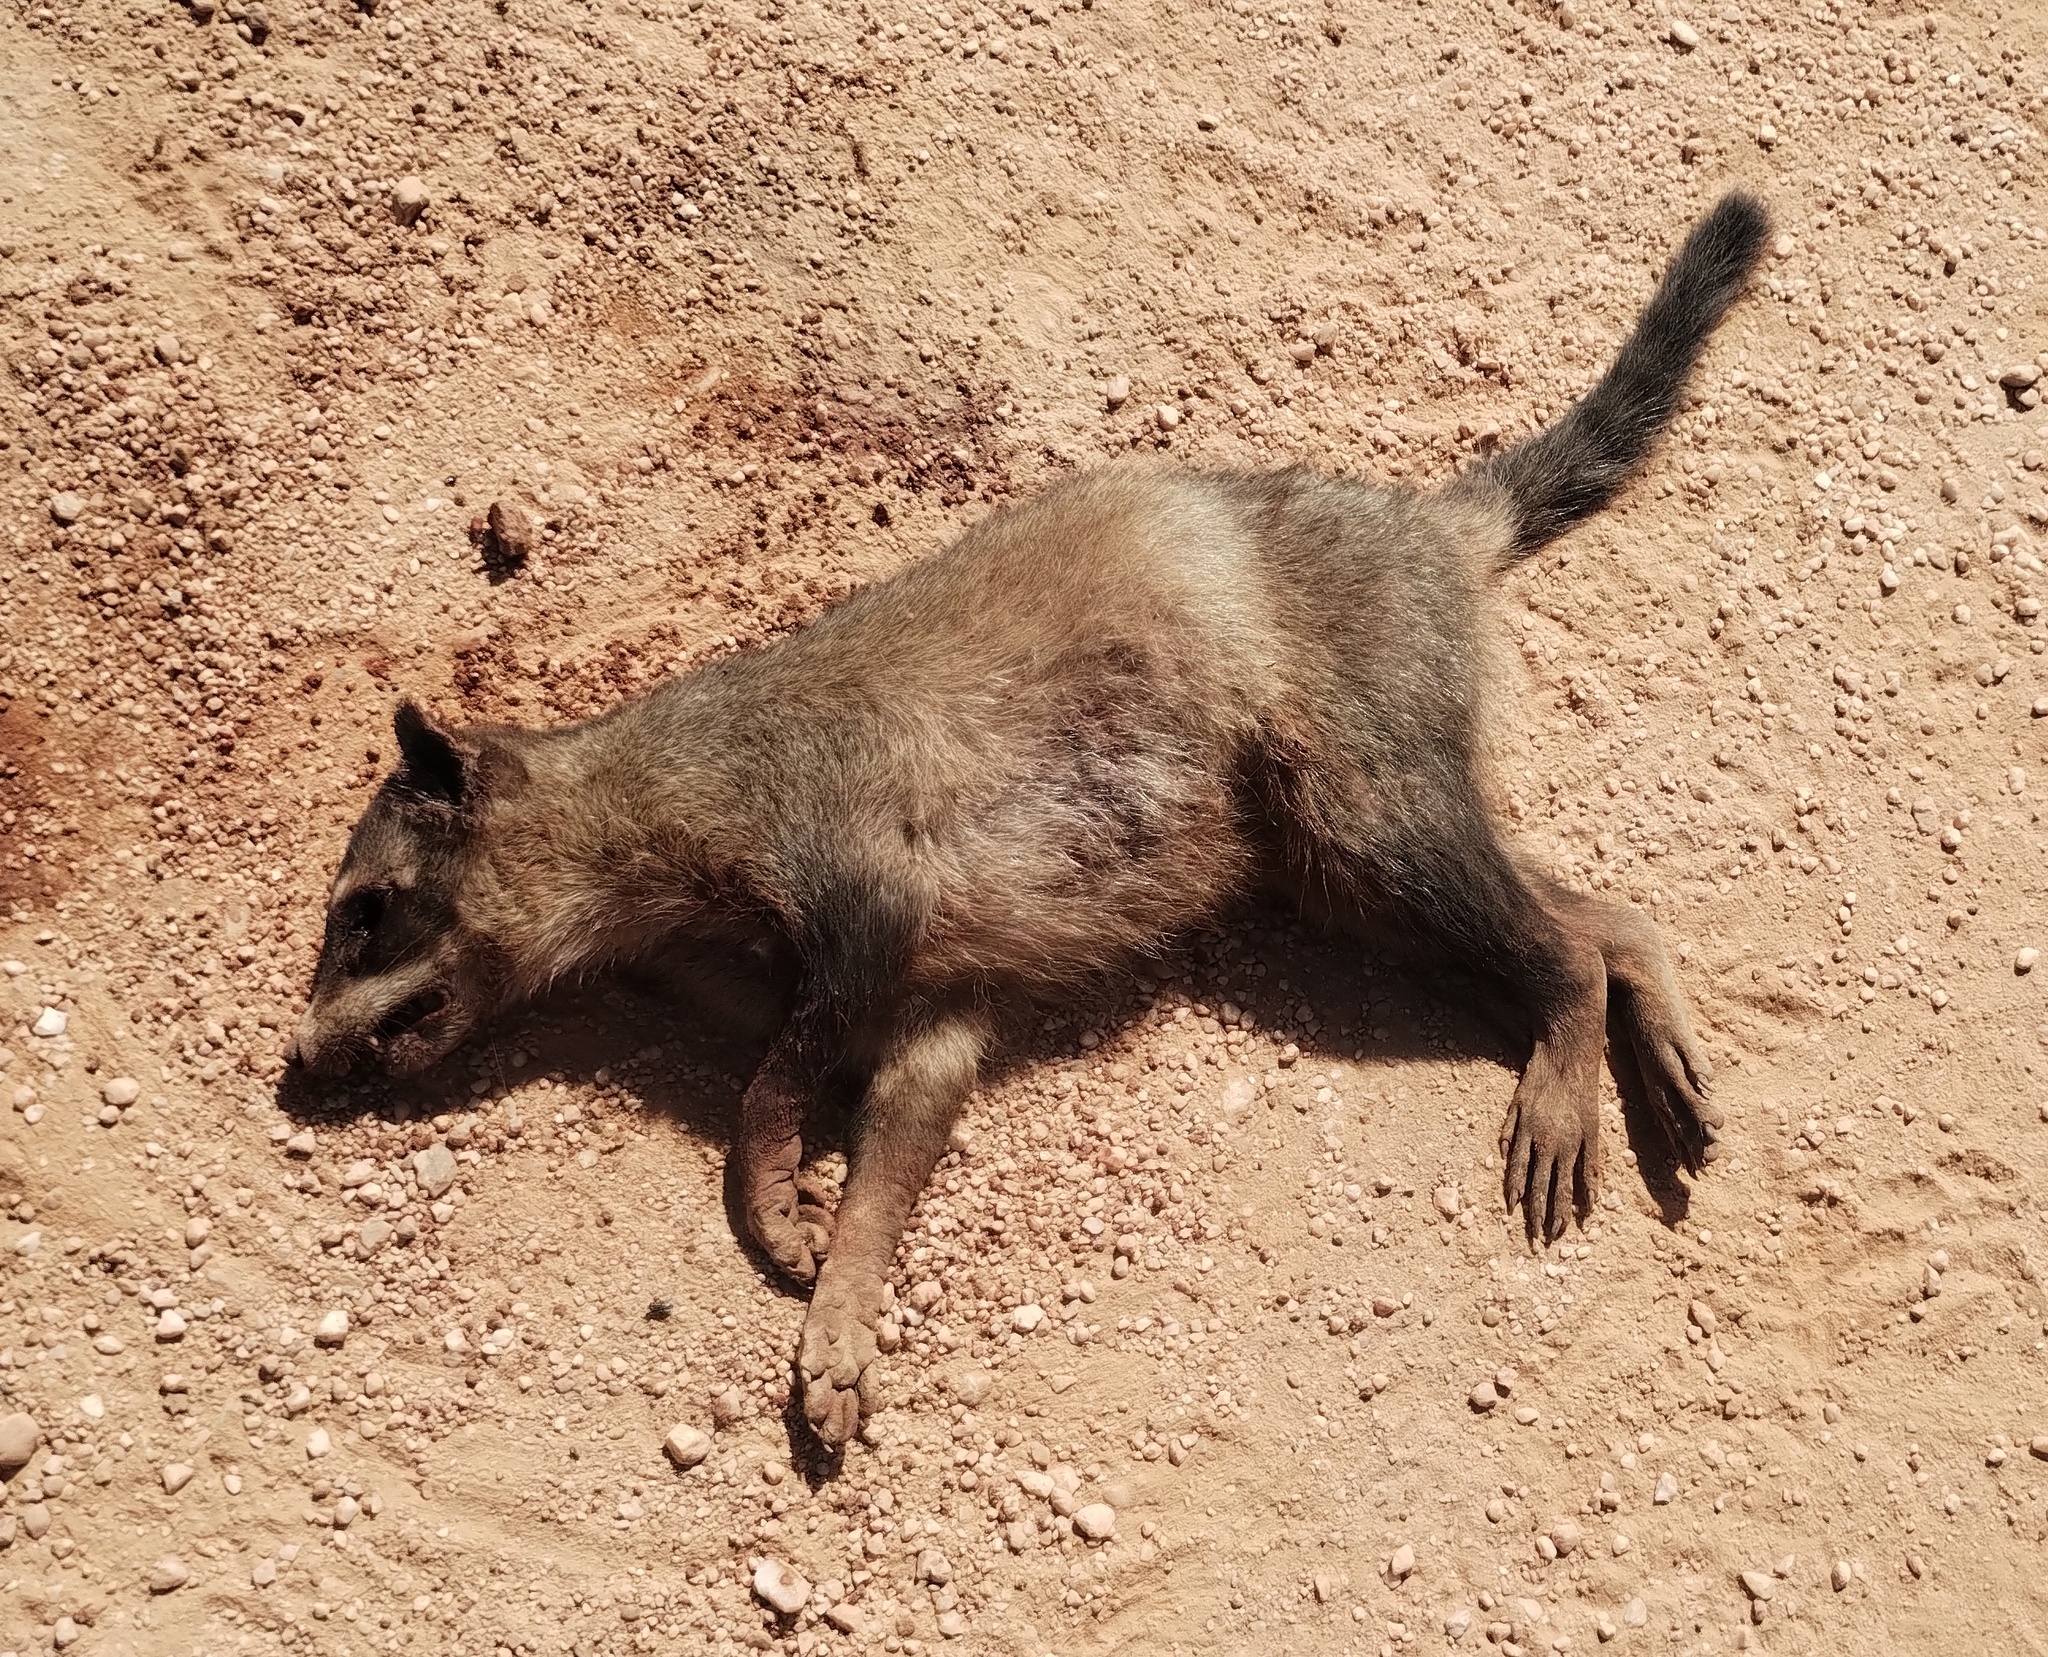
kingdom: Animalia
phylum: Chordata
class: Mammalia
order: Carnivora
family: Procyonidae
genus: Procyon
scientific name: Procyon cancrivorus
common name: Crab-eating raccoon
